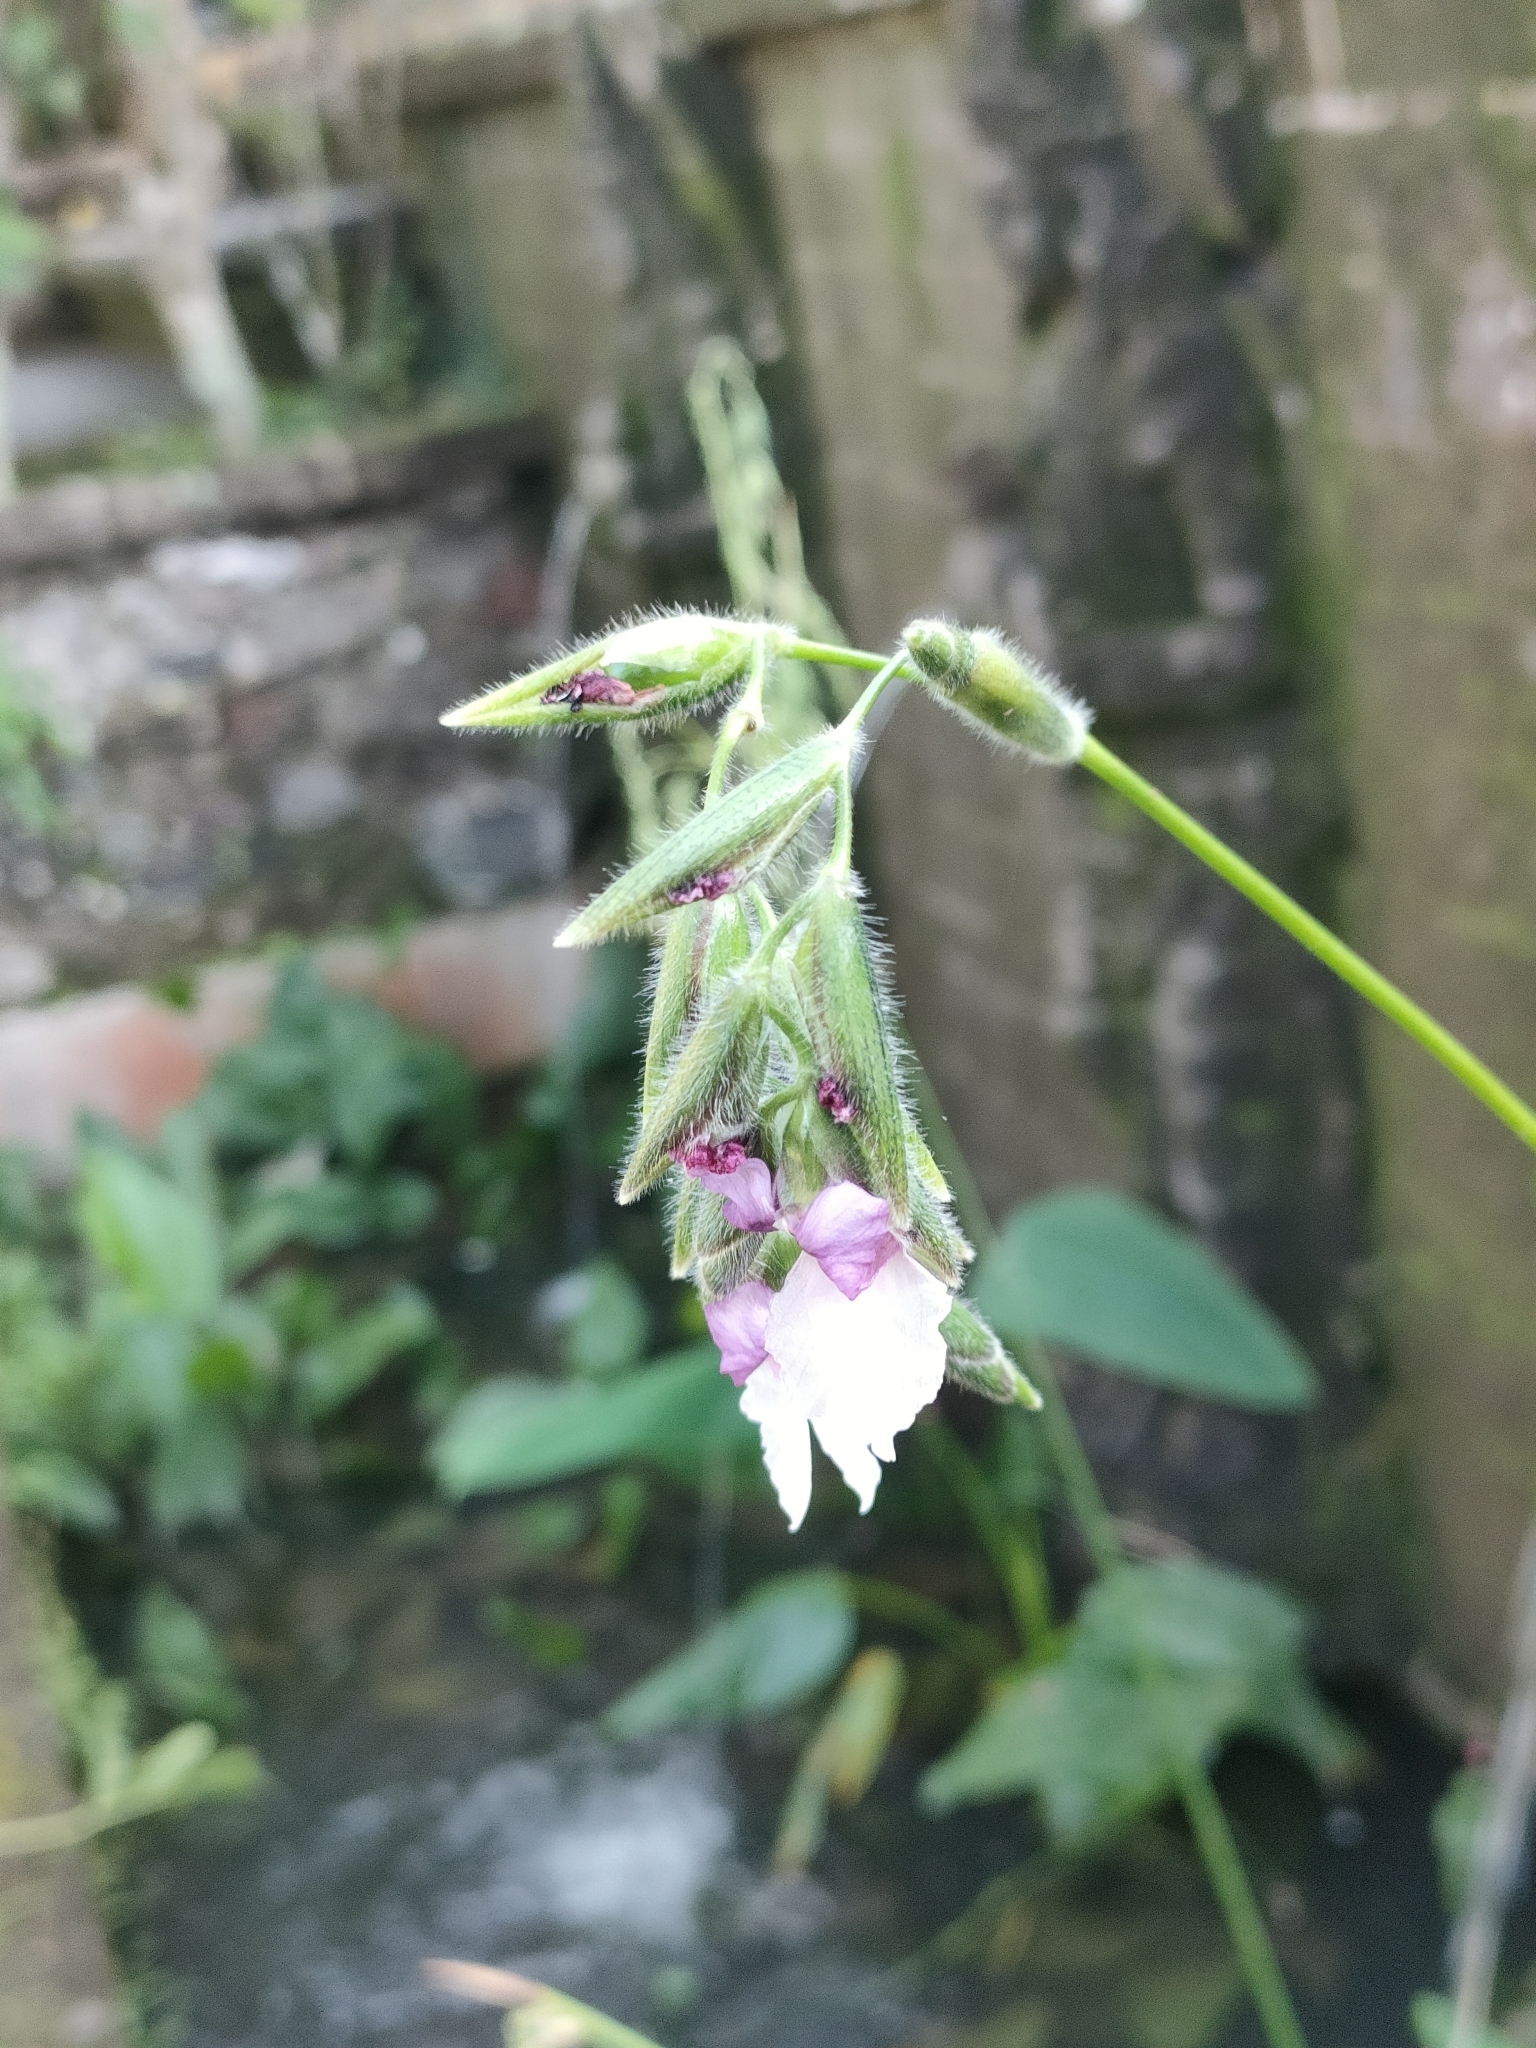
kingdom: Plantae
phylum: Tracheophyta
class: Liliopsida
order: Zingiberales
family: Marantaceae
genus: Thalia
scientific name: Thalia geniculata
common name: Arrowroot
